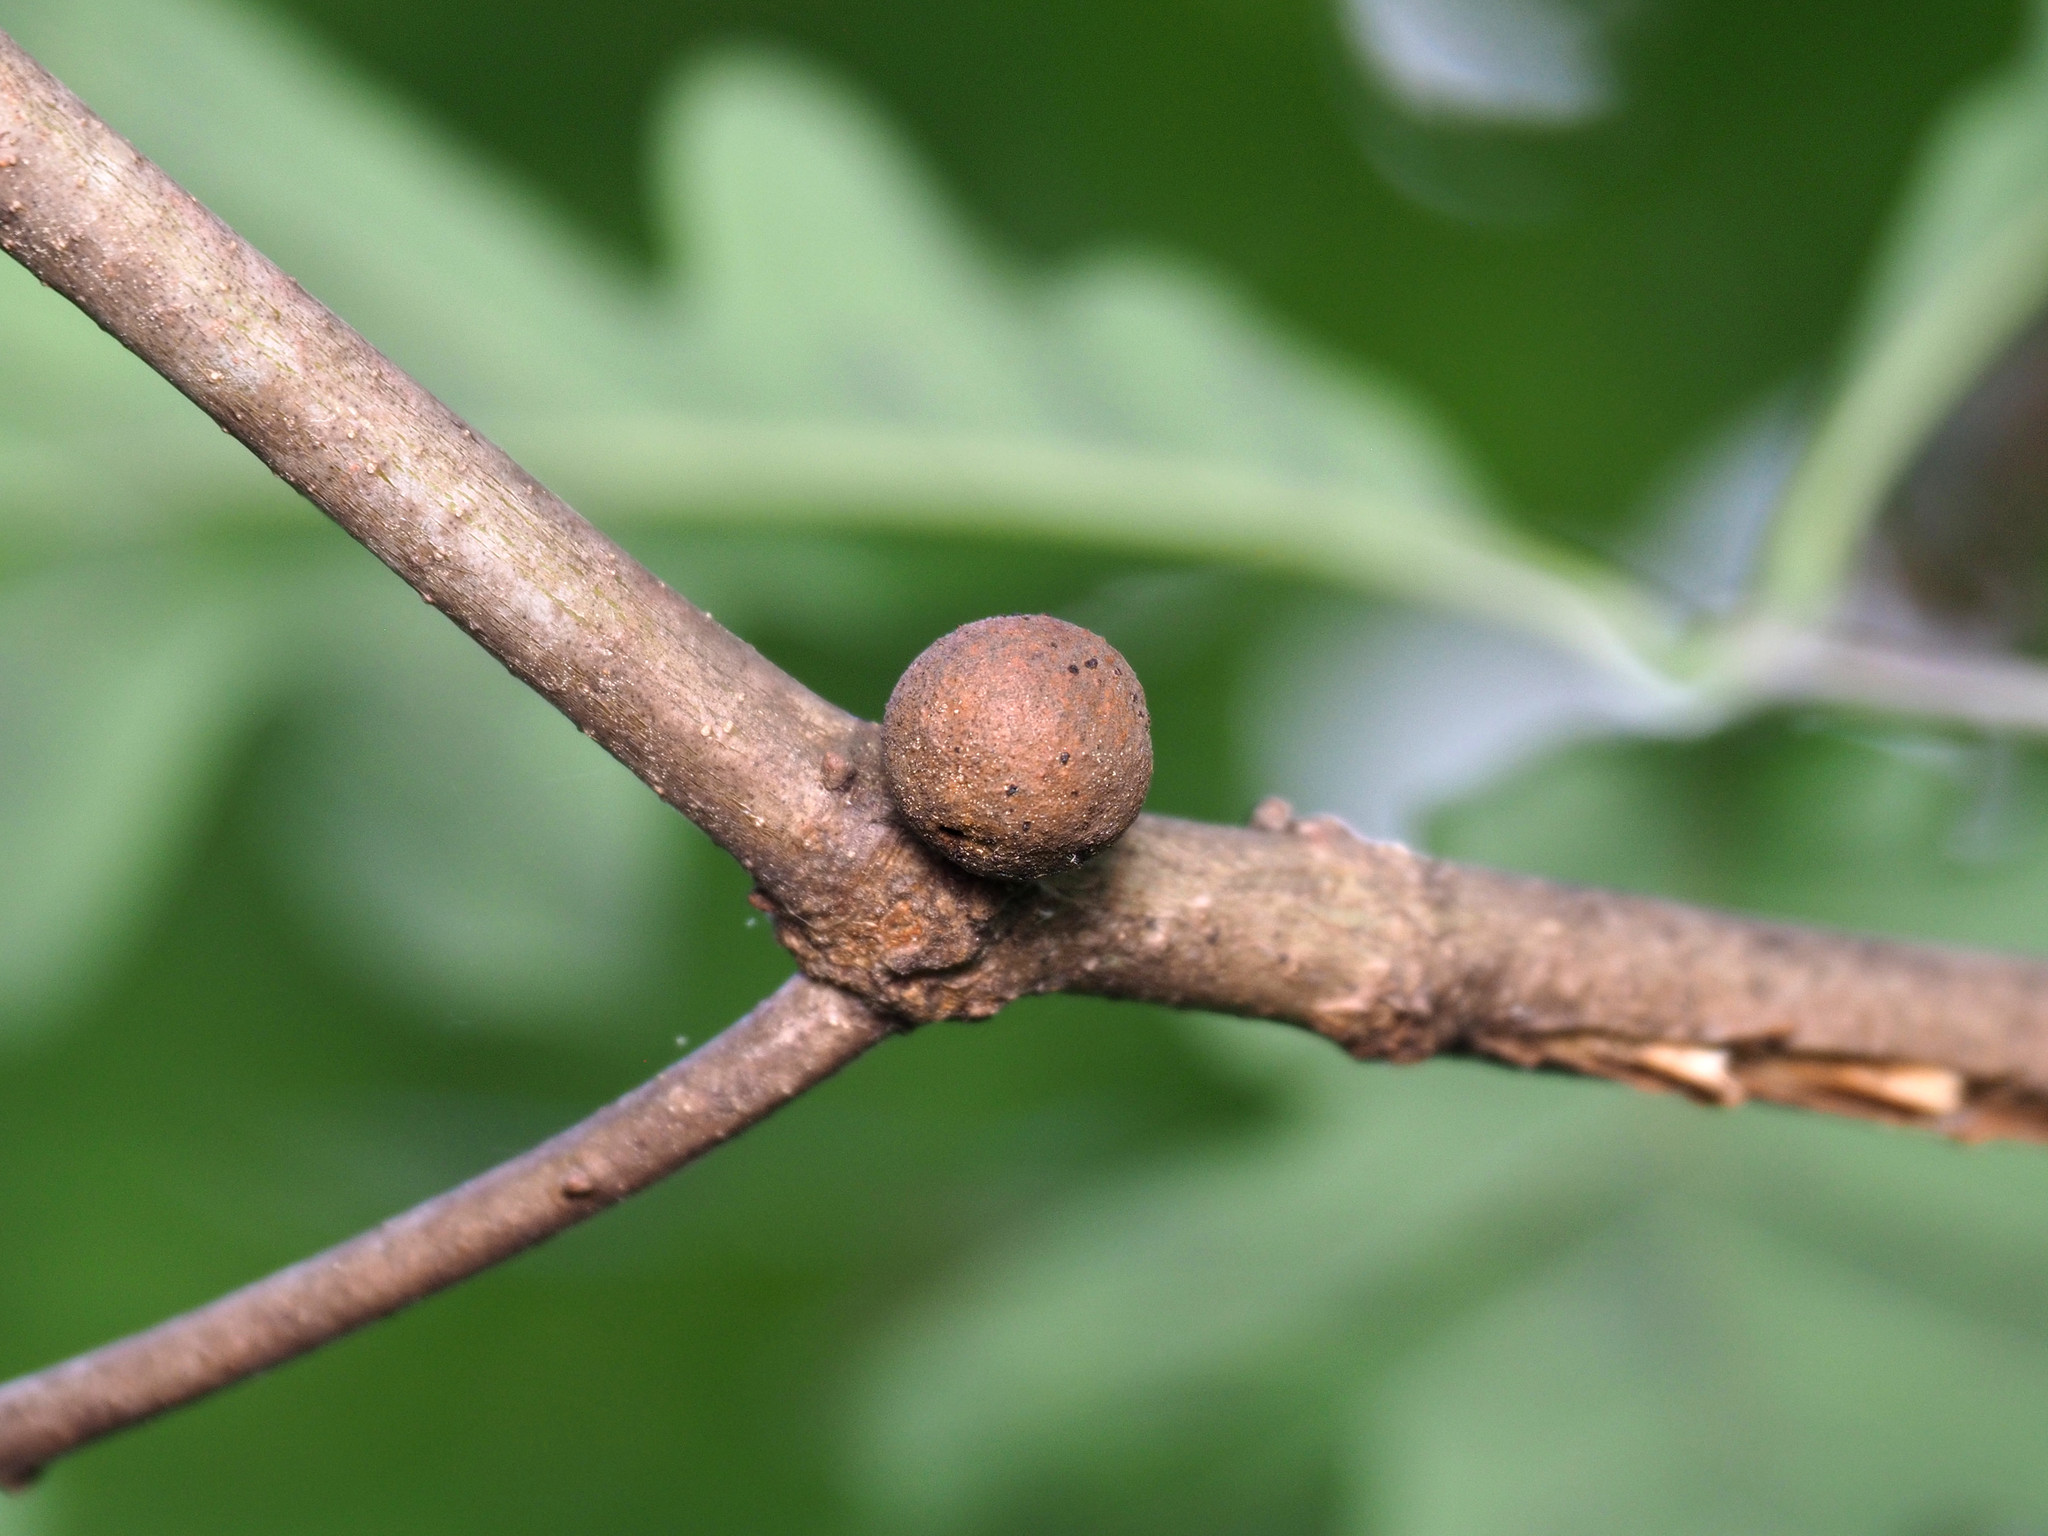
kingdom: Animalia
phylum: Arthropoda
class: Insecta
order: Hymenoptera
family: Cynipidae
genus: Disholcaspis
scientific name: Disholcaspis quercusglobulus
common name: Round bullet gall wasp
